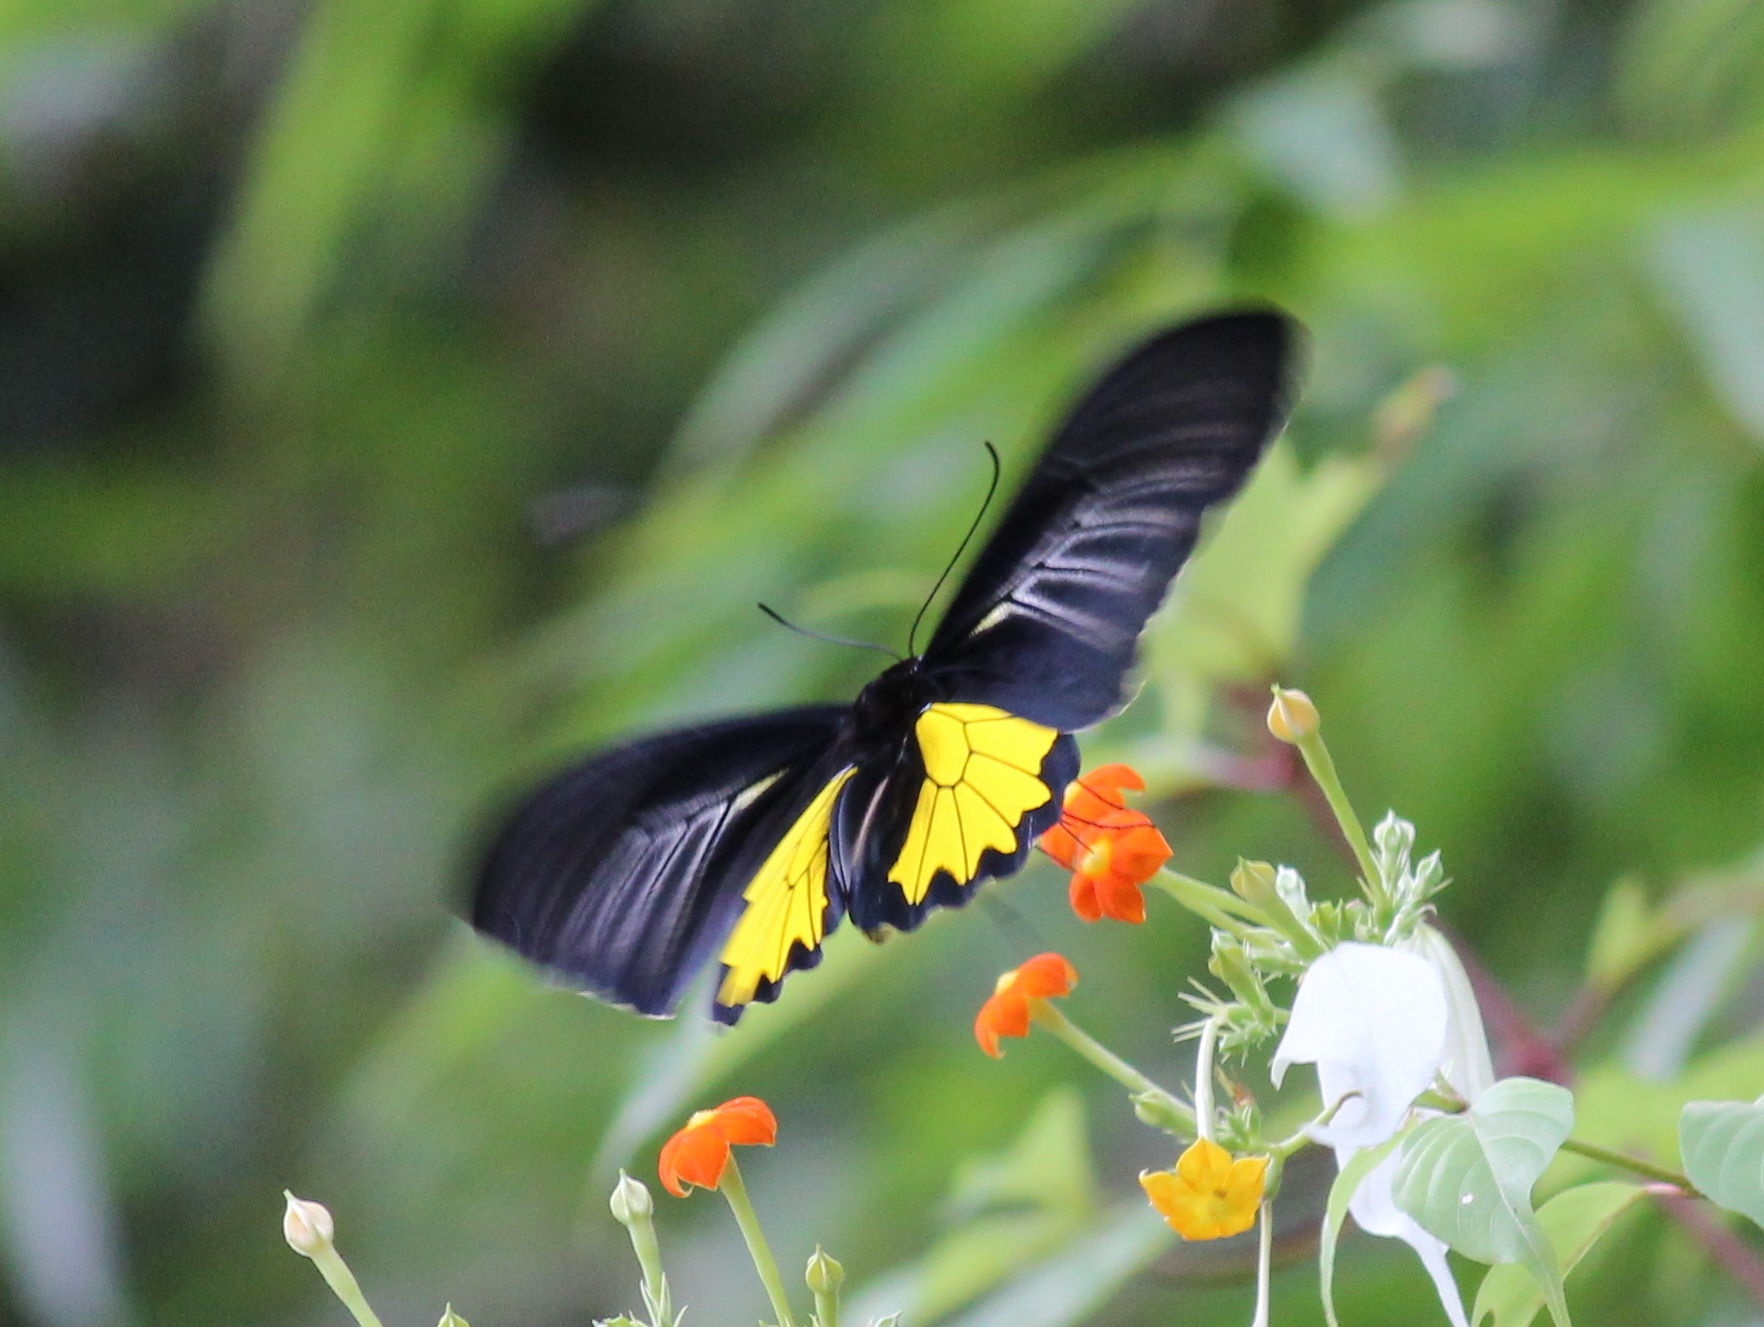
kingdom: Animalia
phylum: Arthropoda
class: Insecta
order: Lepidoptera
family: Papilionidae
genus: Troides
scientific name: Troides minos
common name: Malabar birdwing
